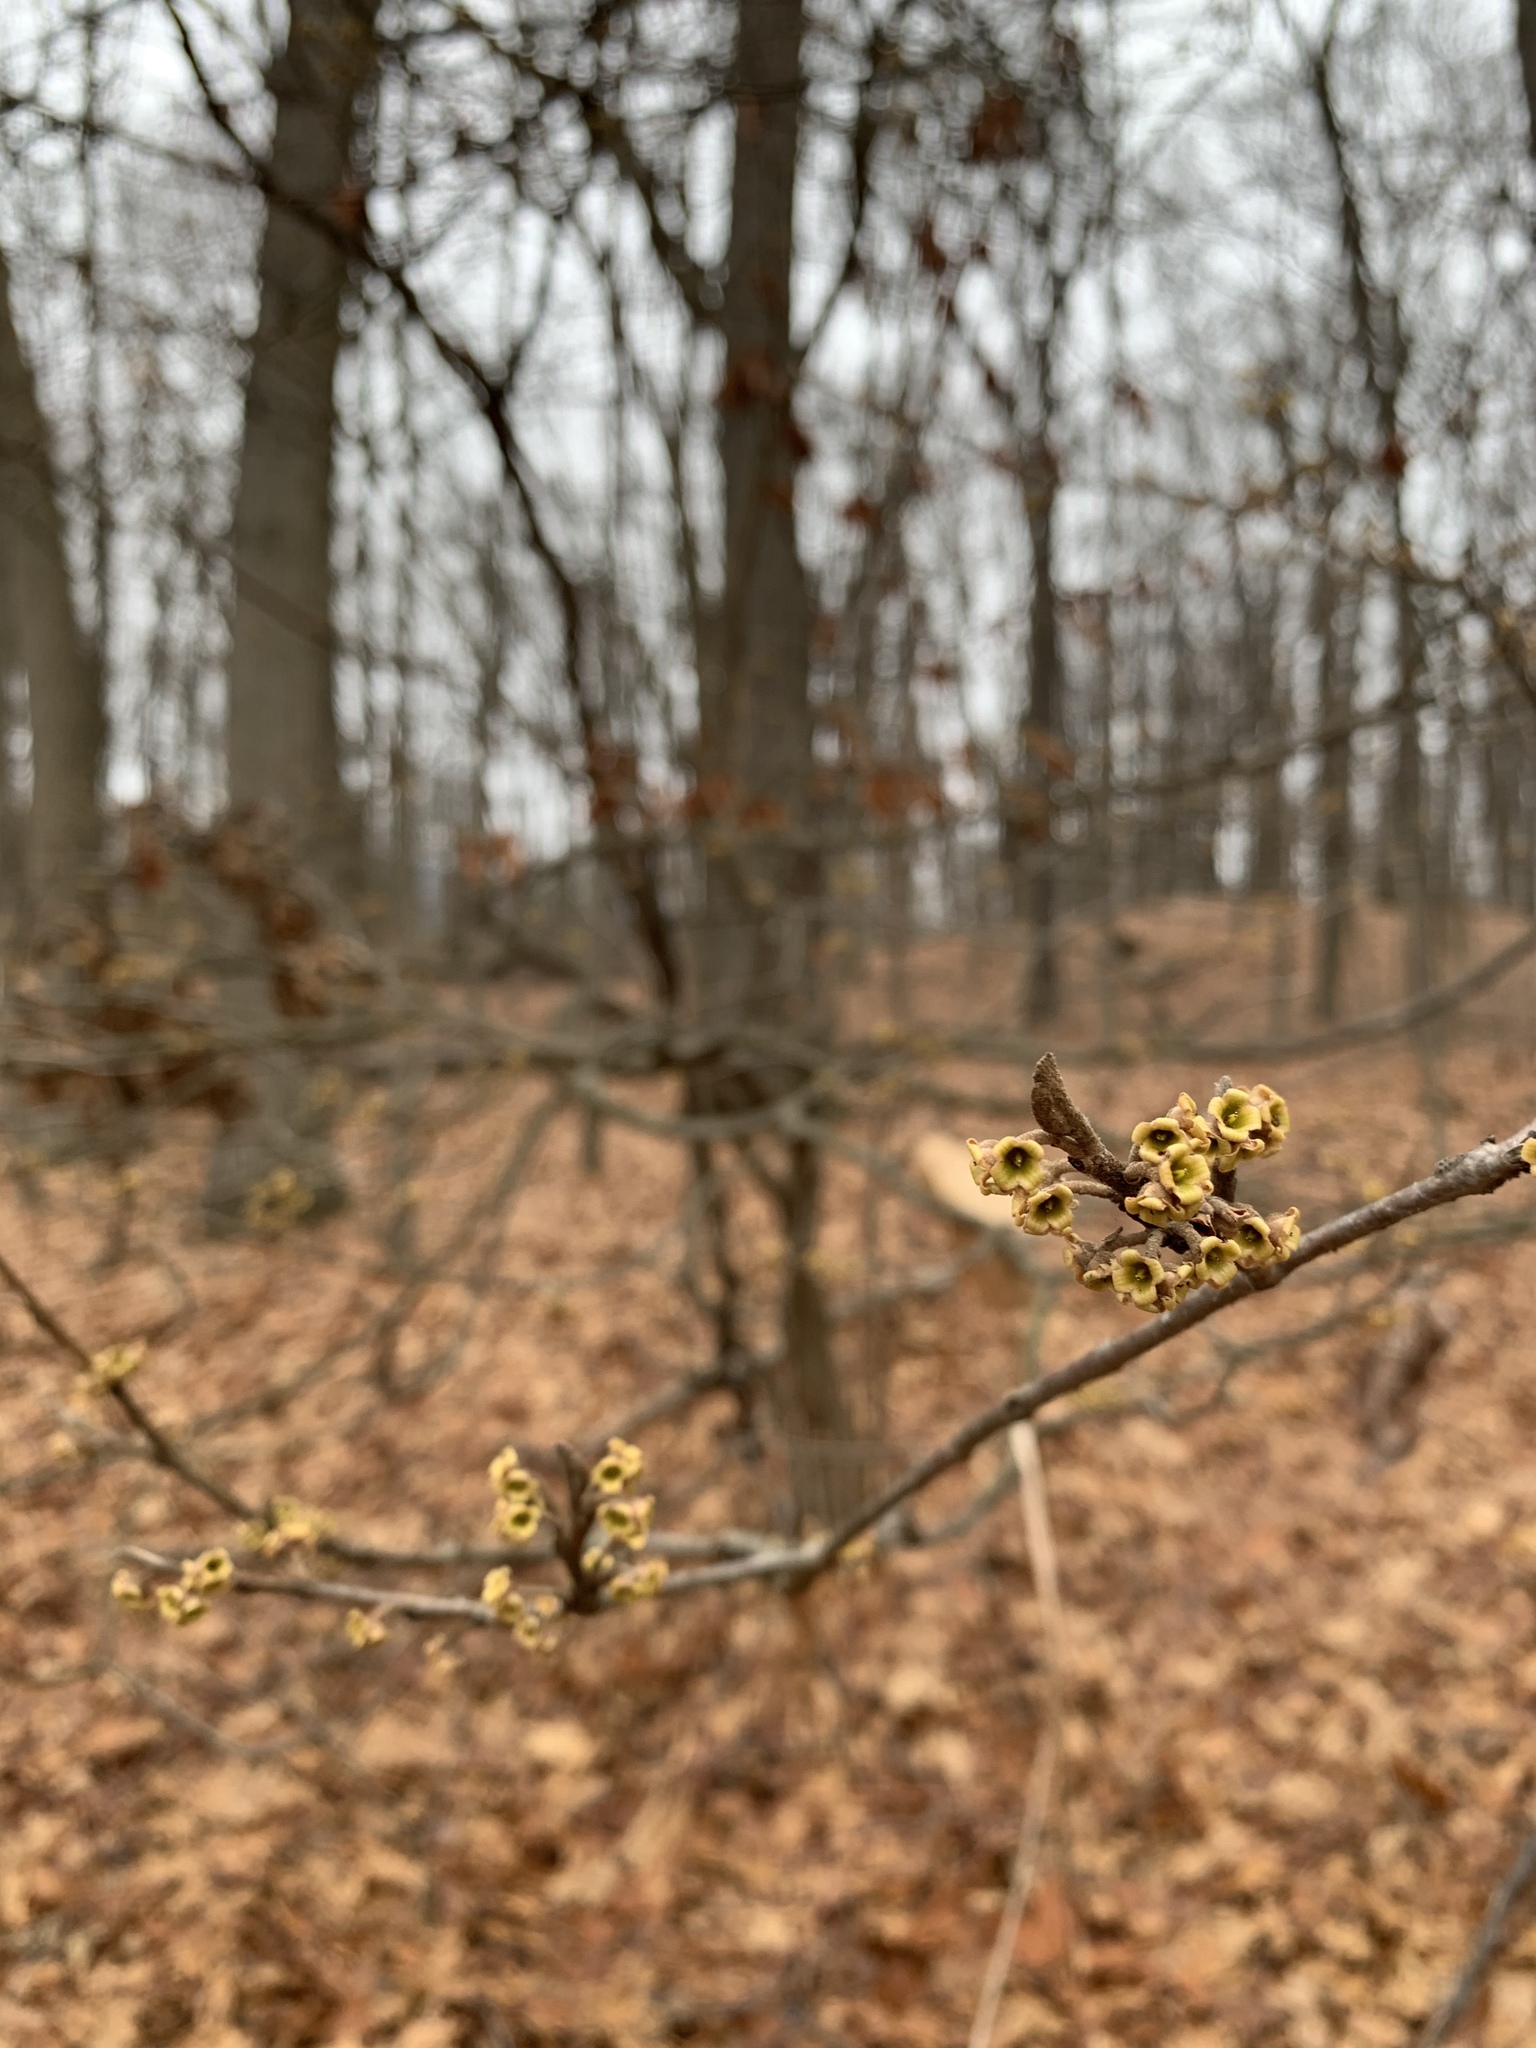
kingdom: Plantae
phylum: Tracheophyta
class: Magnoliopsida
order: Saxifragales
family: Hamamelidaceae
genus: Hamamelis
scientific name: Hamamelis virginiana
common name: Witch-hazel
